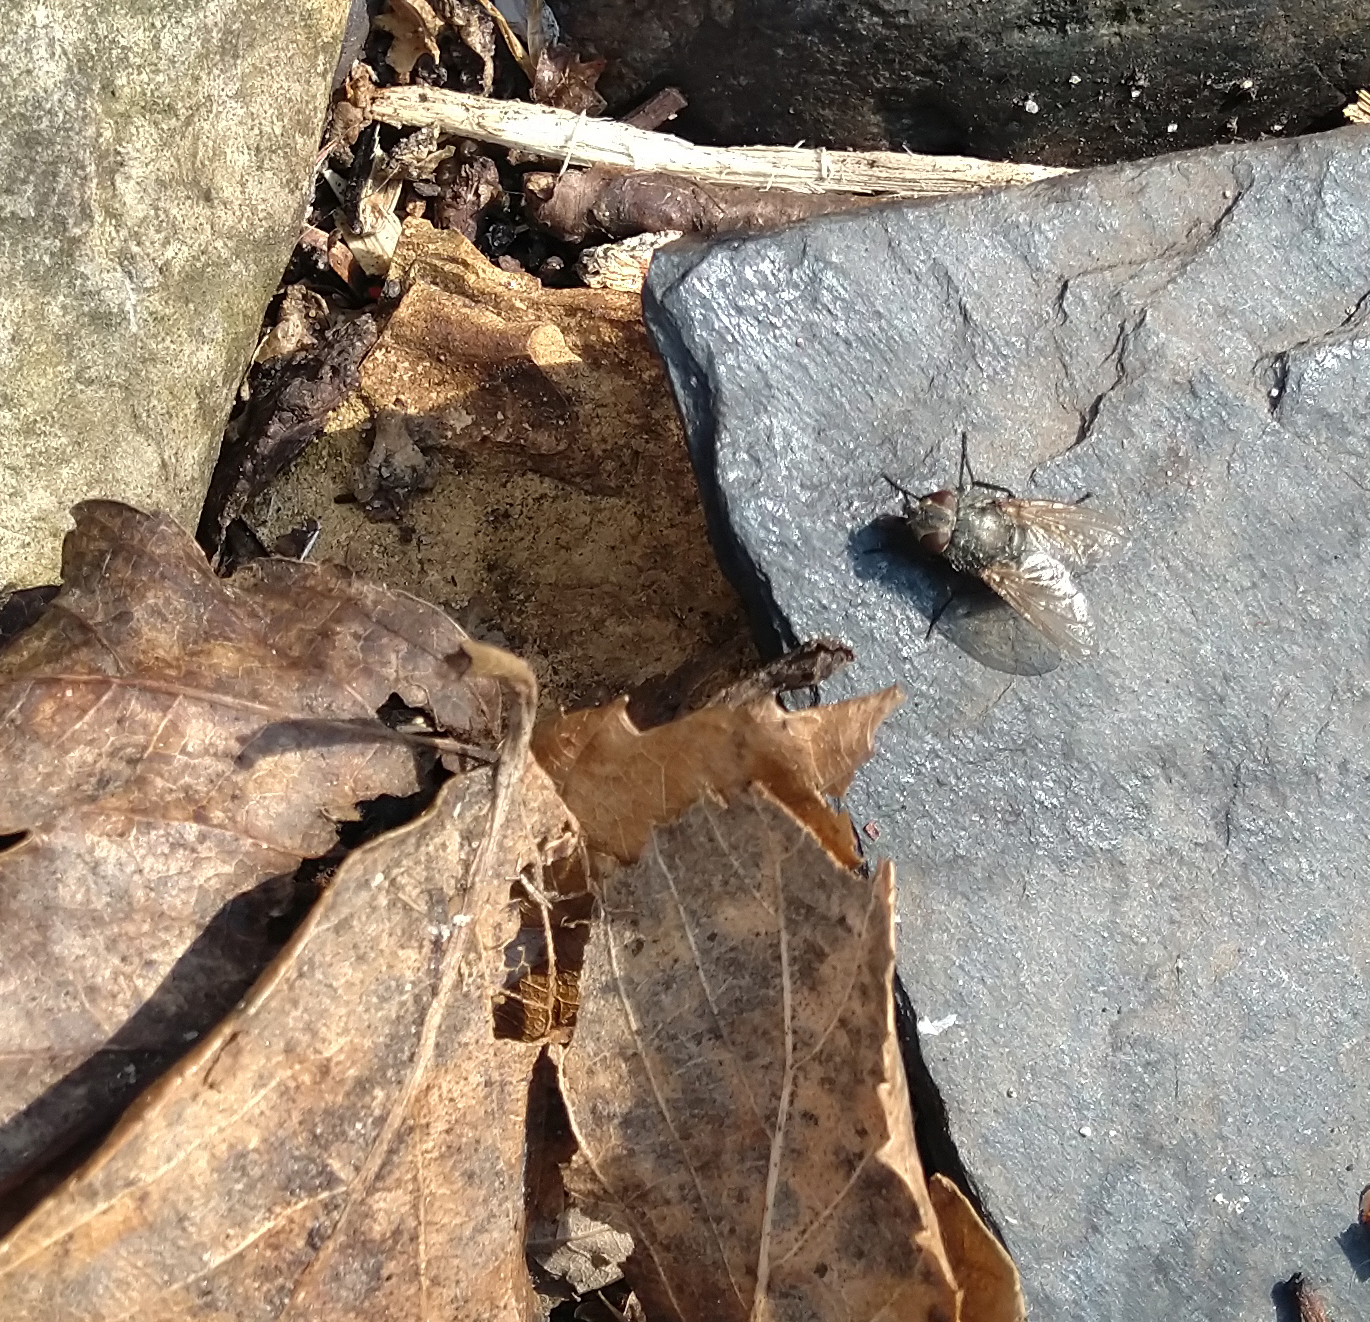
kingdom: Animalia
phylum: Arthropoda
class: Insecta
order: Diptera
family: Polleniidae
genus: Pollenia
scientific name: Pollenia
